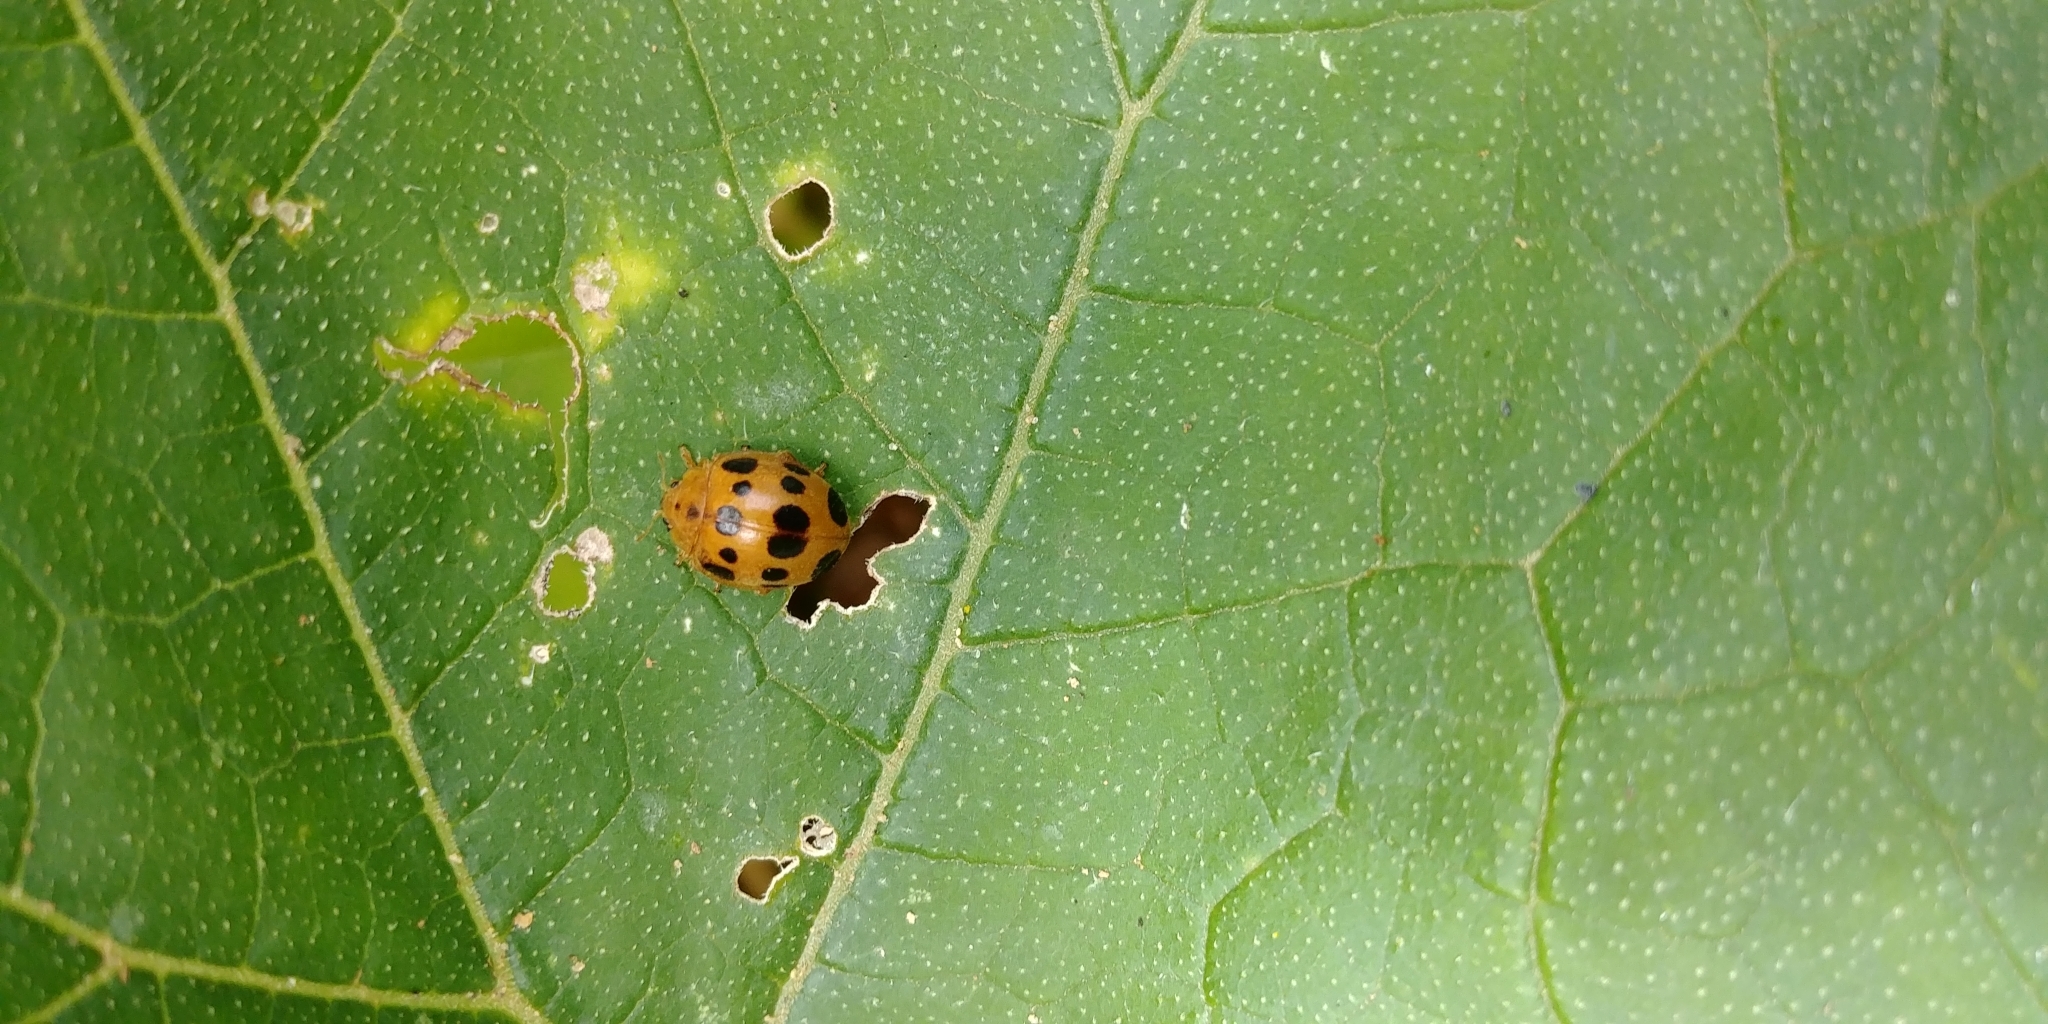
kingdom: Animalia
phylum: Arthropoda
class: Insecta
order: Coleoptera
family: Coccinellidae
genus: Epilachna
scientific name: Epilachna borealis
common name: Squash beetle
